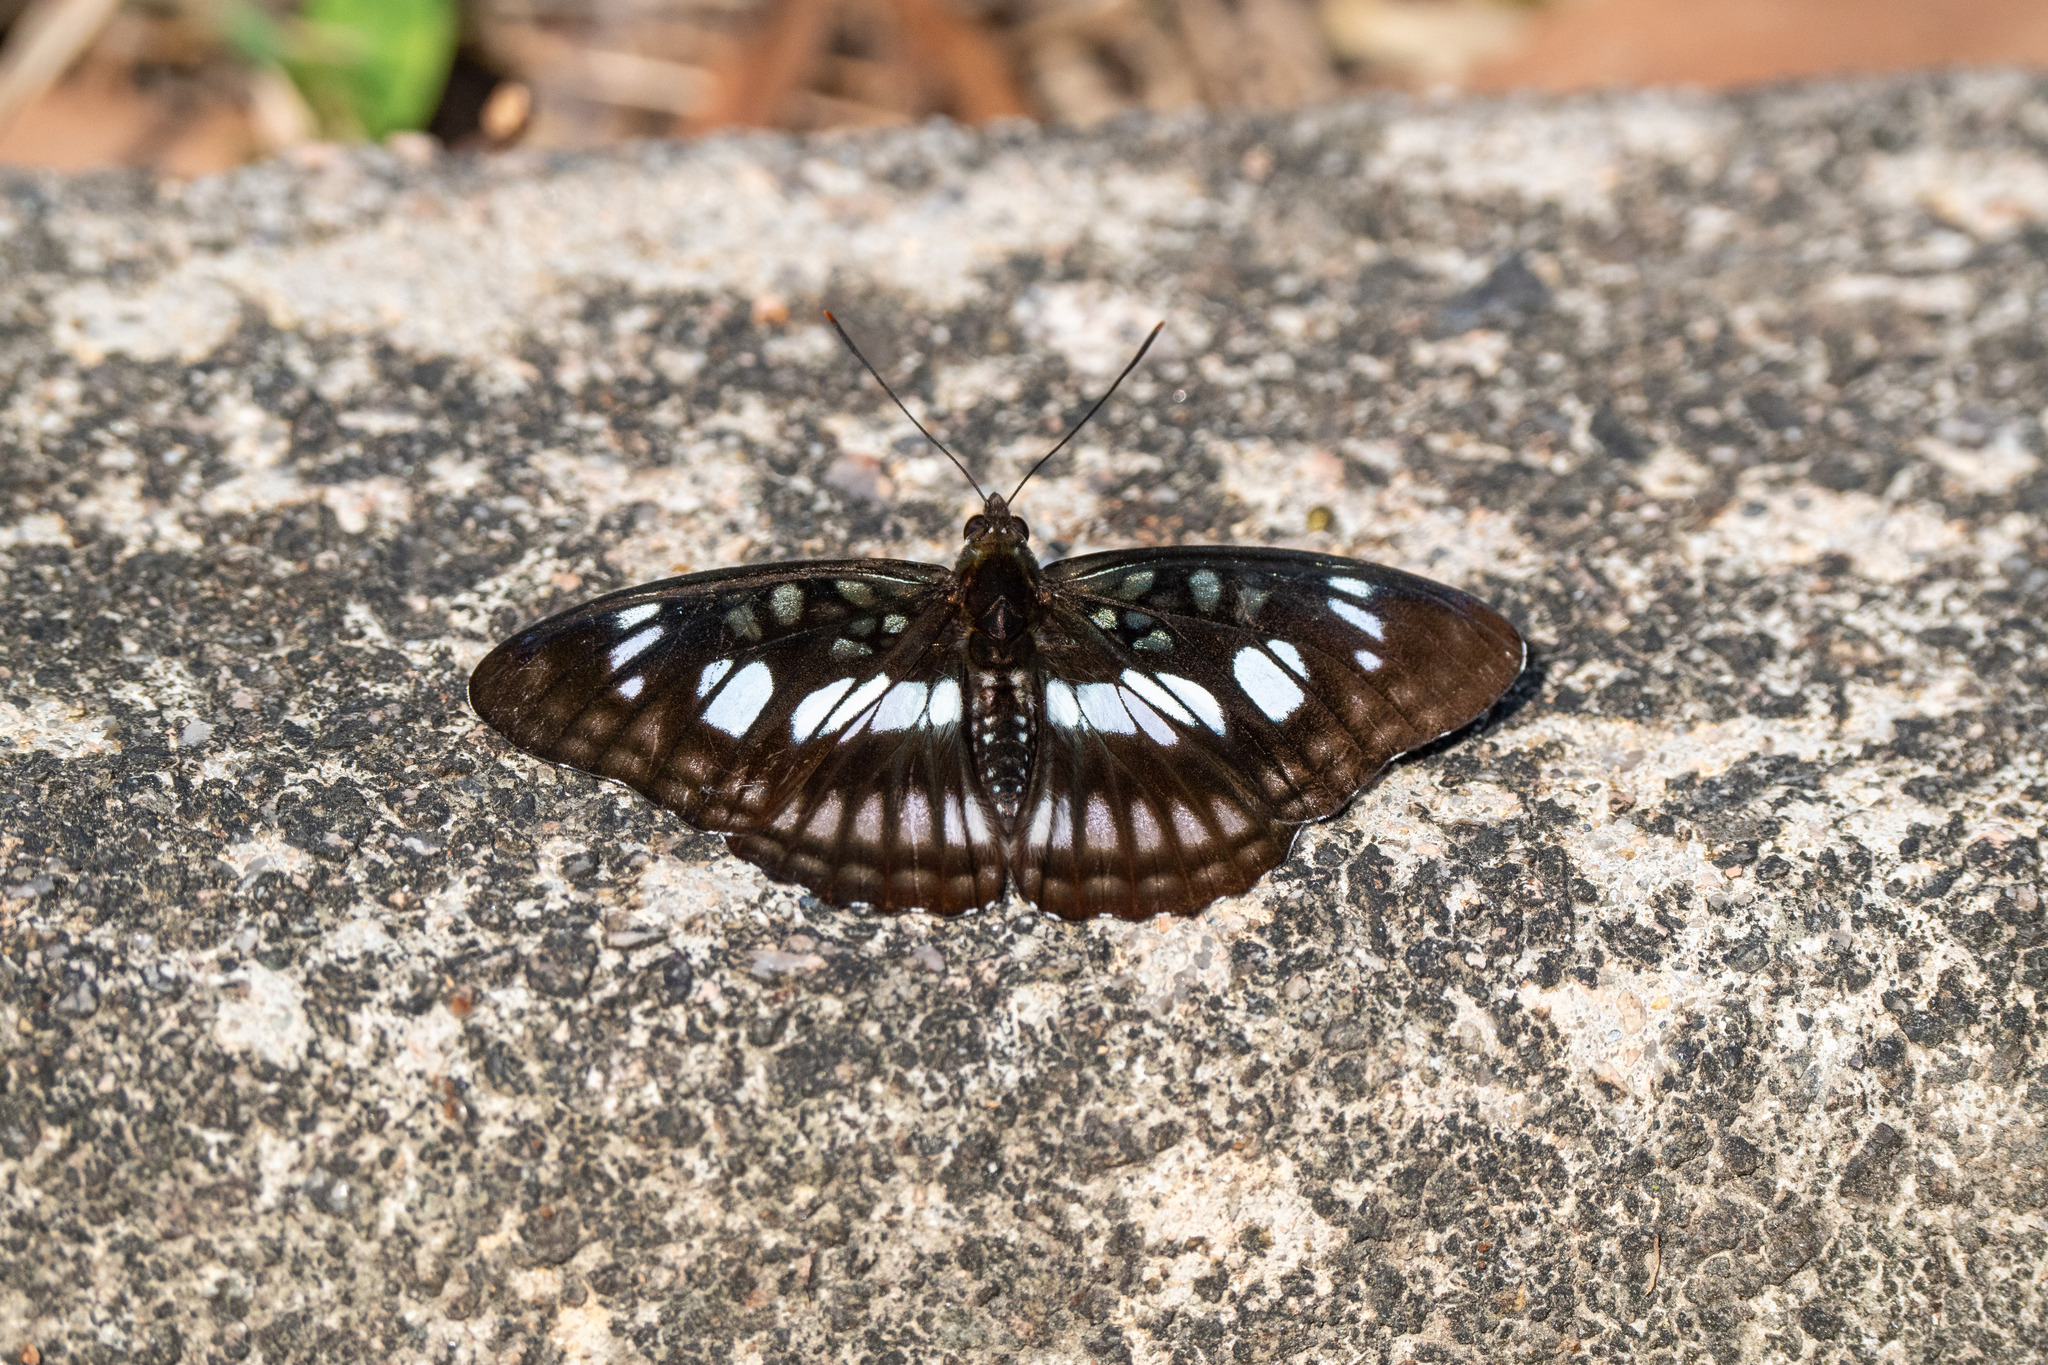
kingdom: Animalia
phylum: Arthropoda
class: Insecta
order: Lepidoptera
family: Nymphalidae
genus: Parathyma
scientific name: Parathyma ranga
